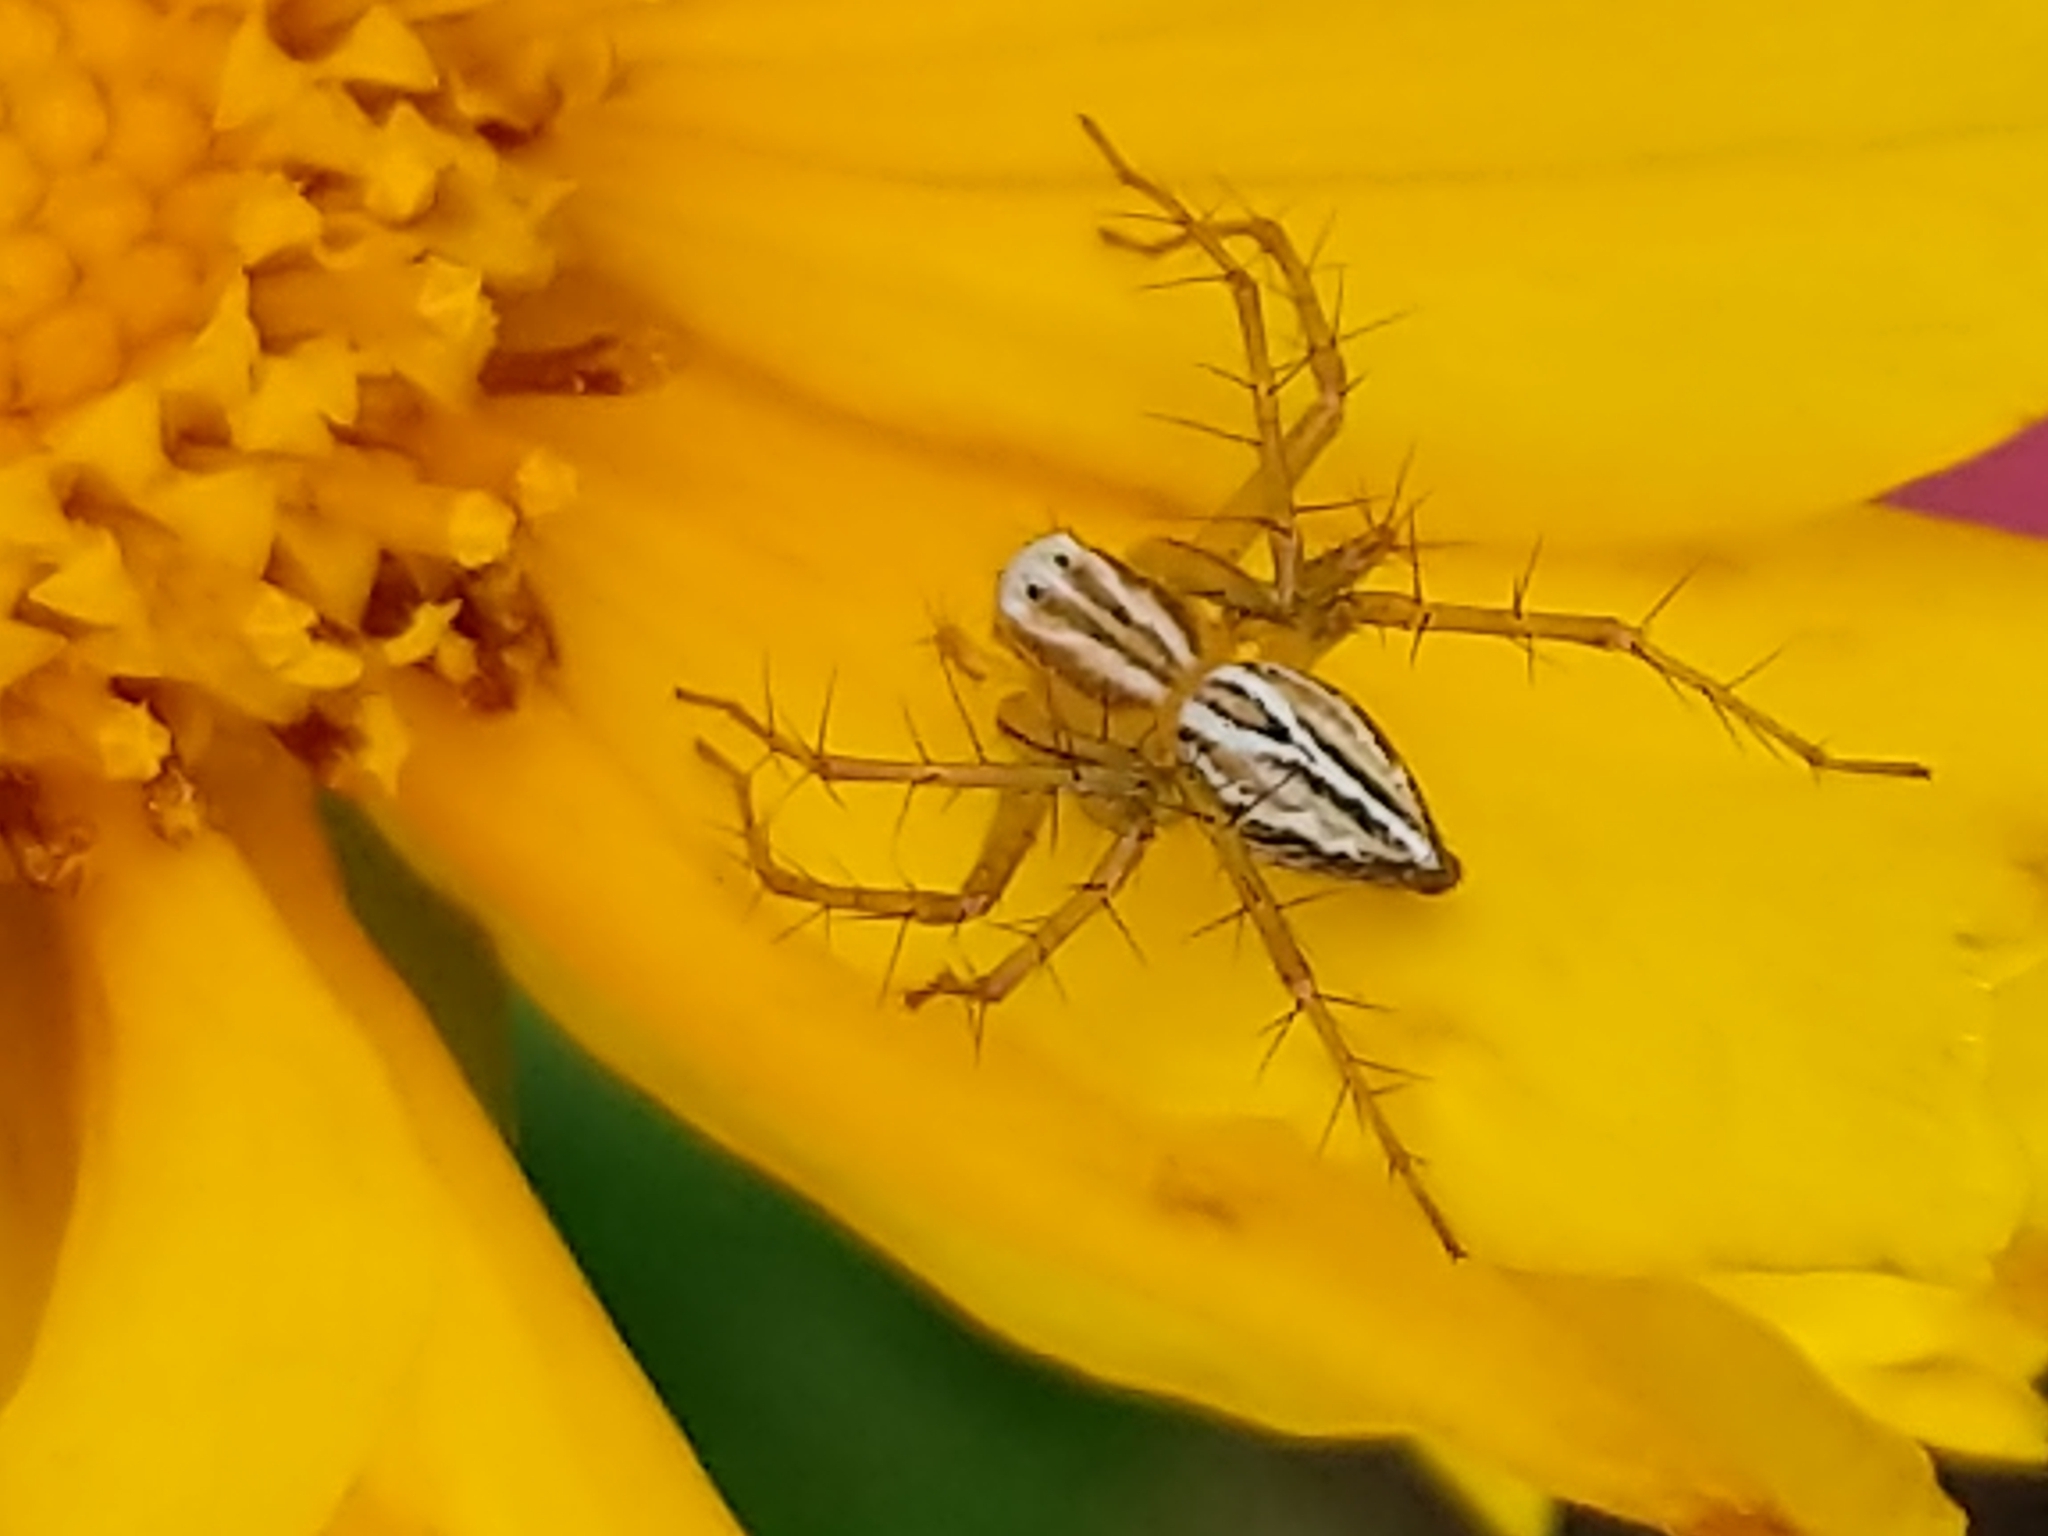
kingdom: Animalia
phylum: Arthropoda
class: Arachnida
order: Araneae
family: Oxyopidae
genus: Oxyopes
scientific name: Oxyopes salticus
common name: Lynx spiders
